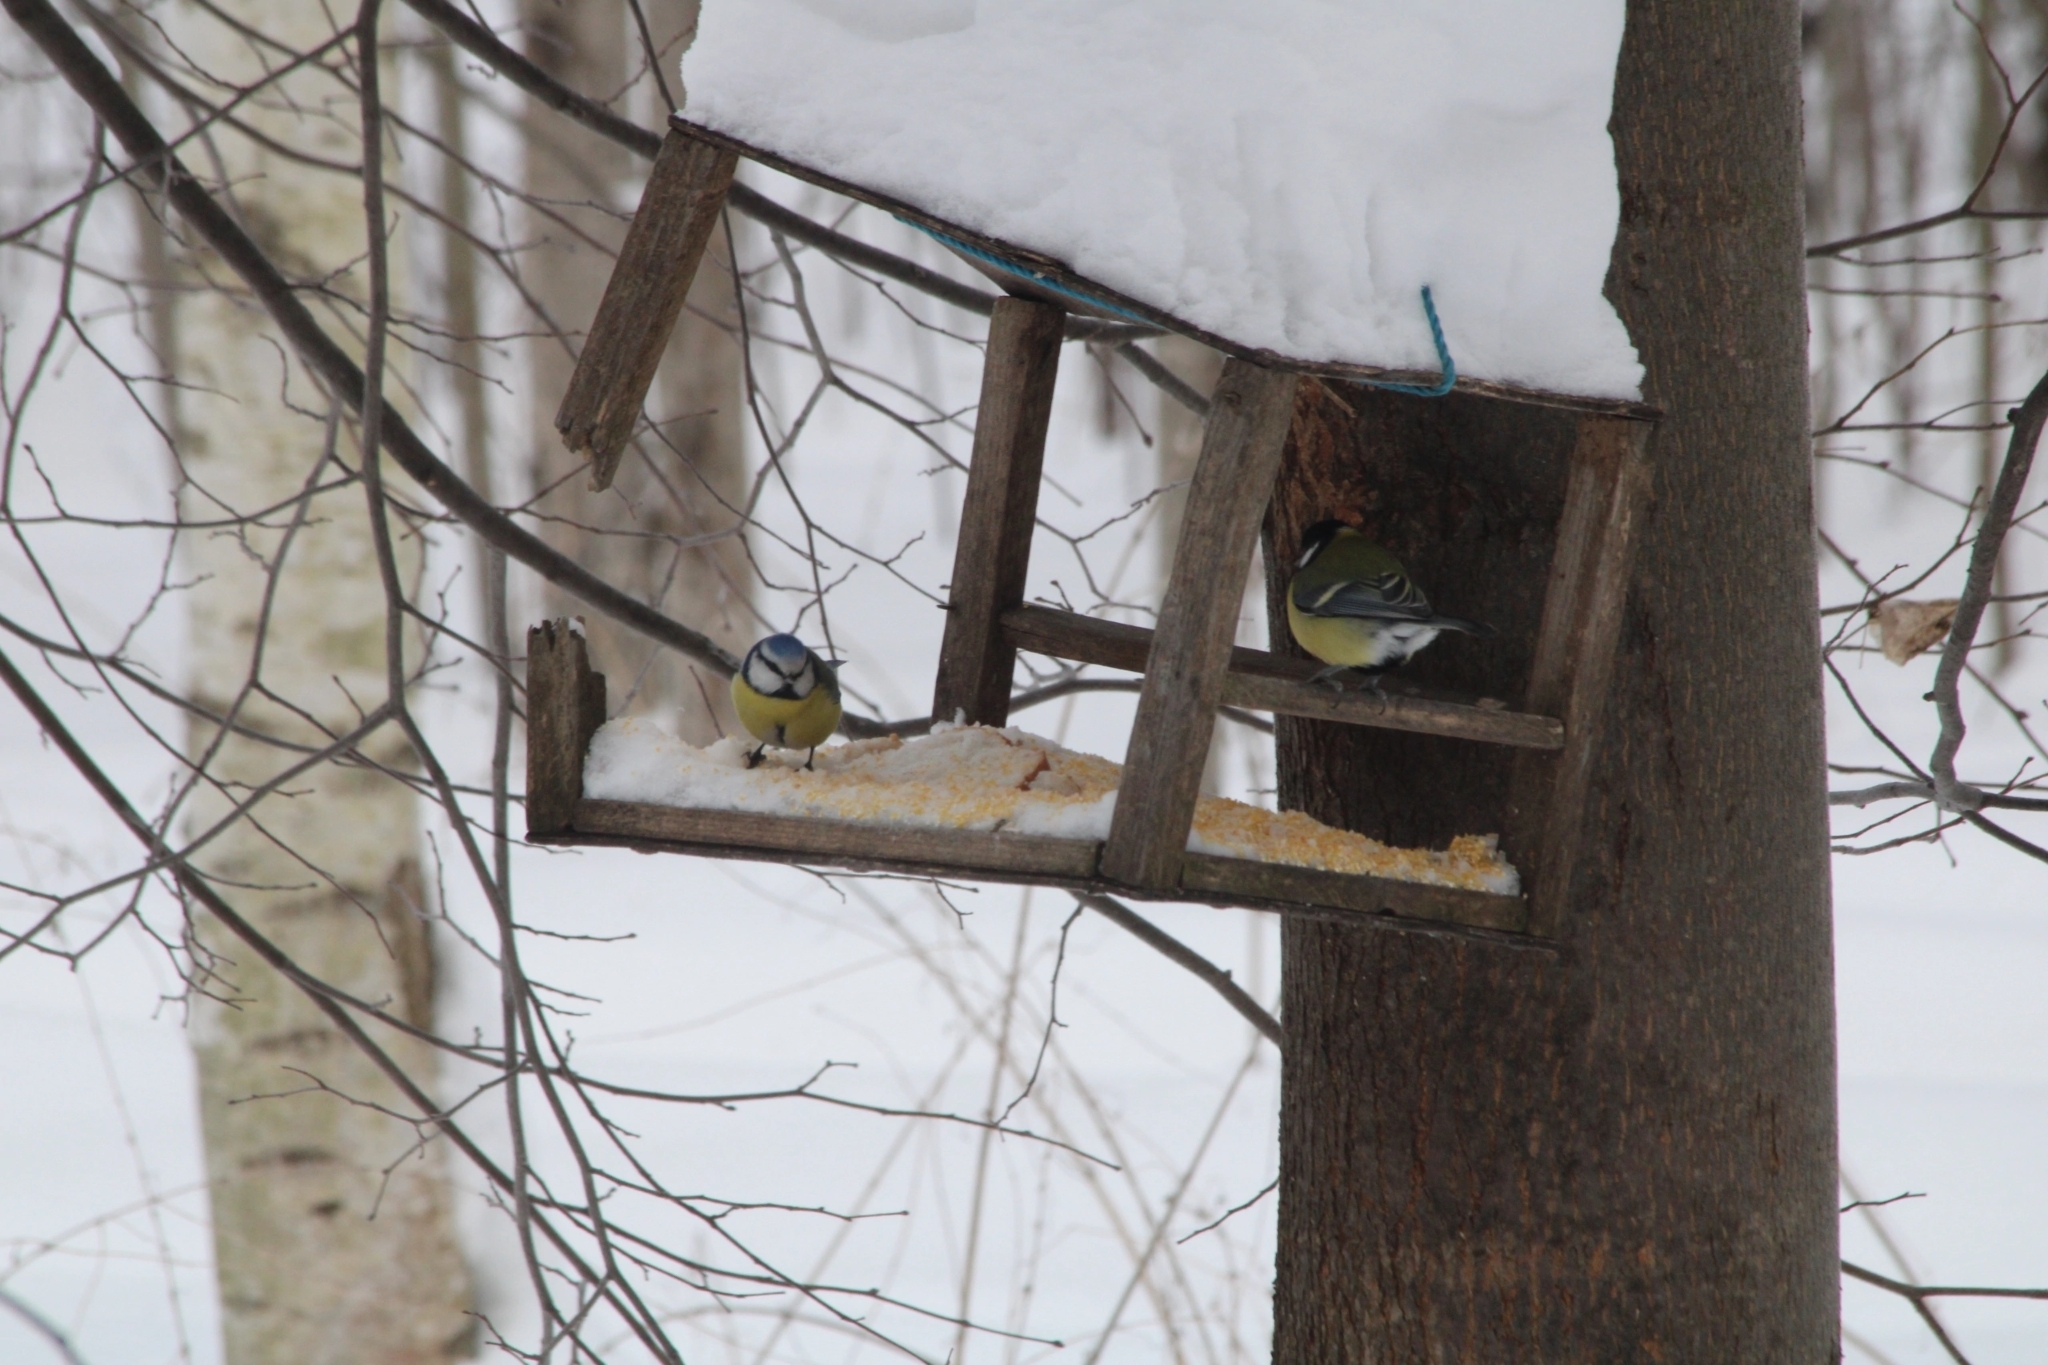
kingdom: Animalia
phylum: Chordata
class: Aves
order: Passeriformes
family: Paridae
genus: Cyanistes
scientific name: Cyanistes caeruleus
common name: Eurasian blue tit
